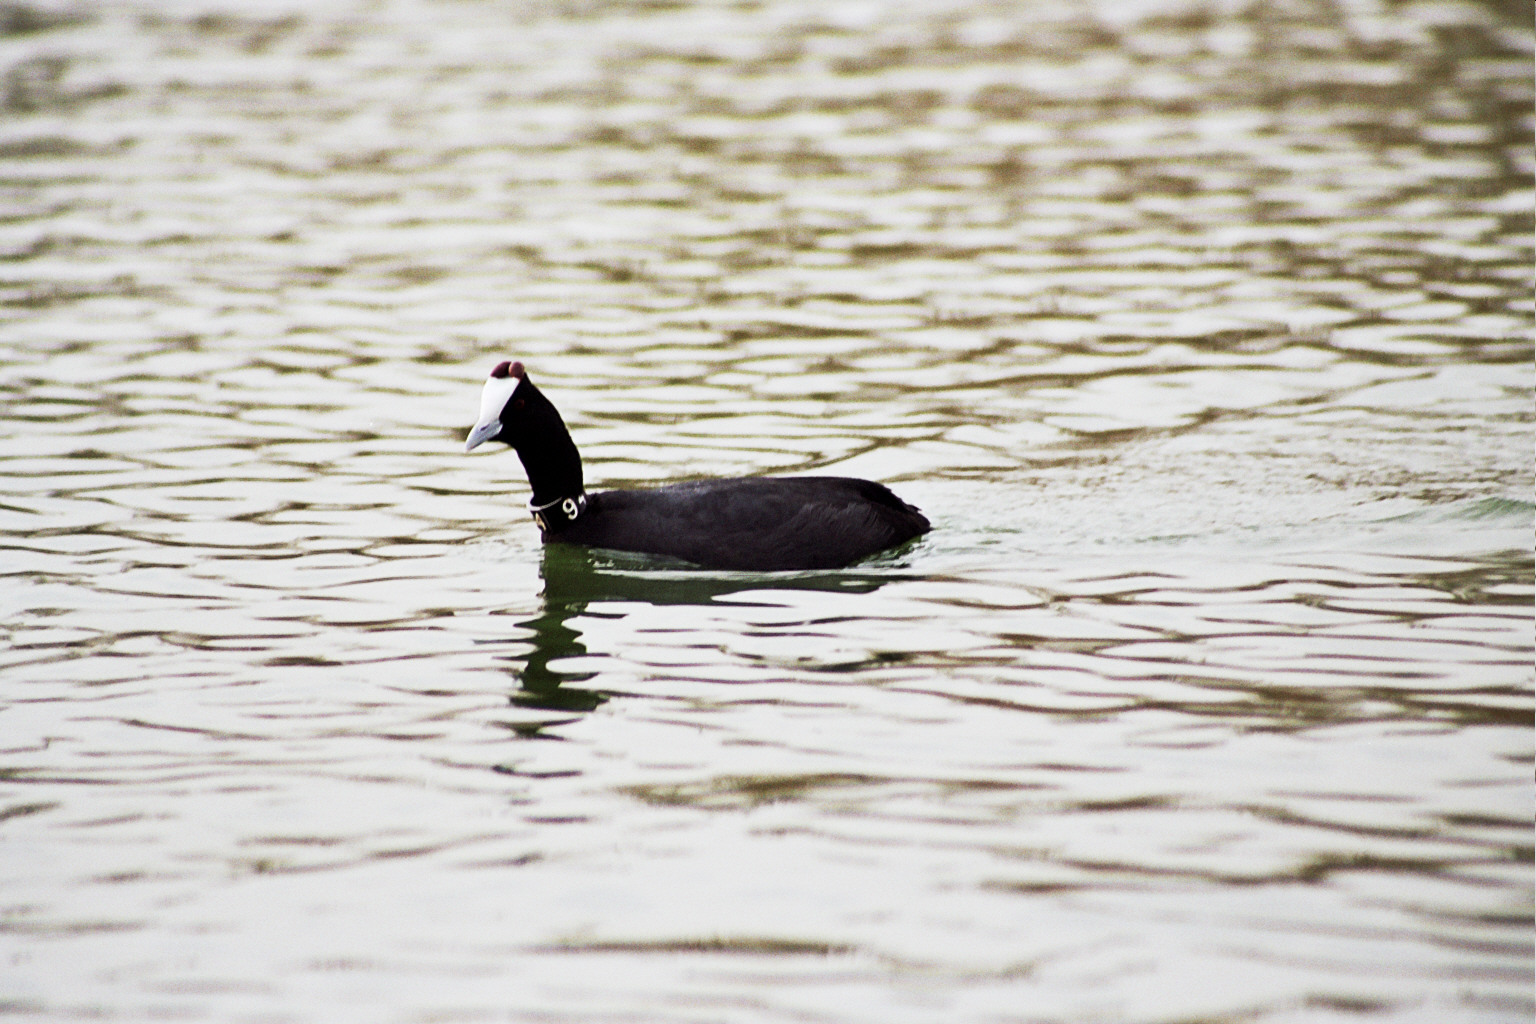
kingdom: Animalia
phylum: Chordata
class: Aves
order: Gruiformes
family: Rallidae
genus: Fulica
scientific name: Fulica cristata
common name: Red-knobbed coot
